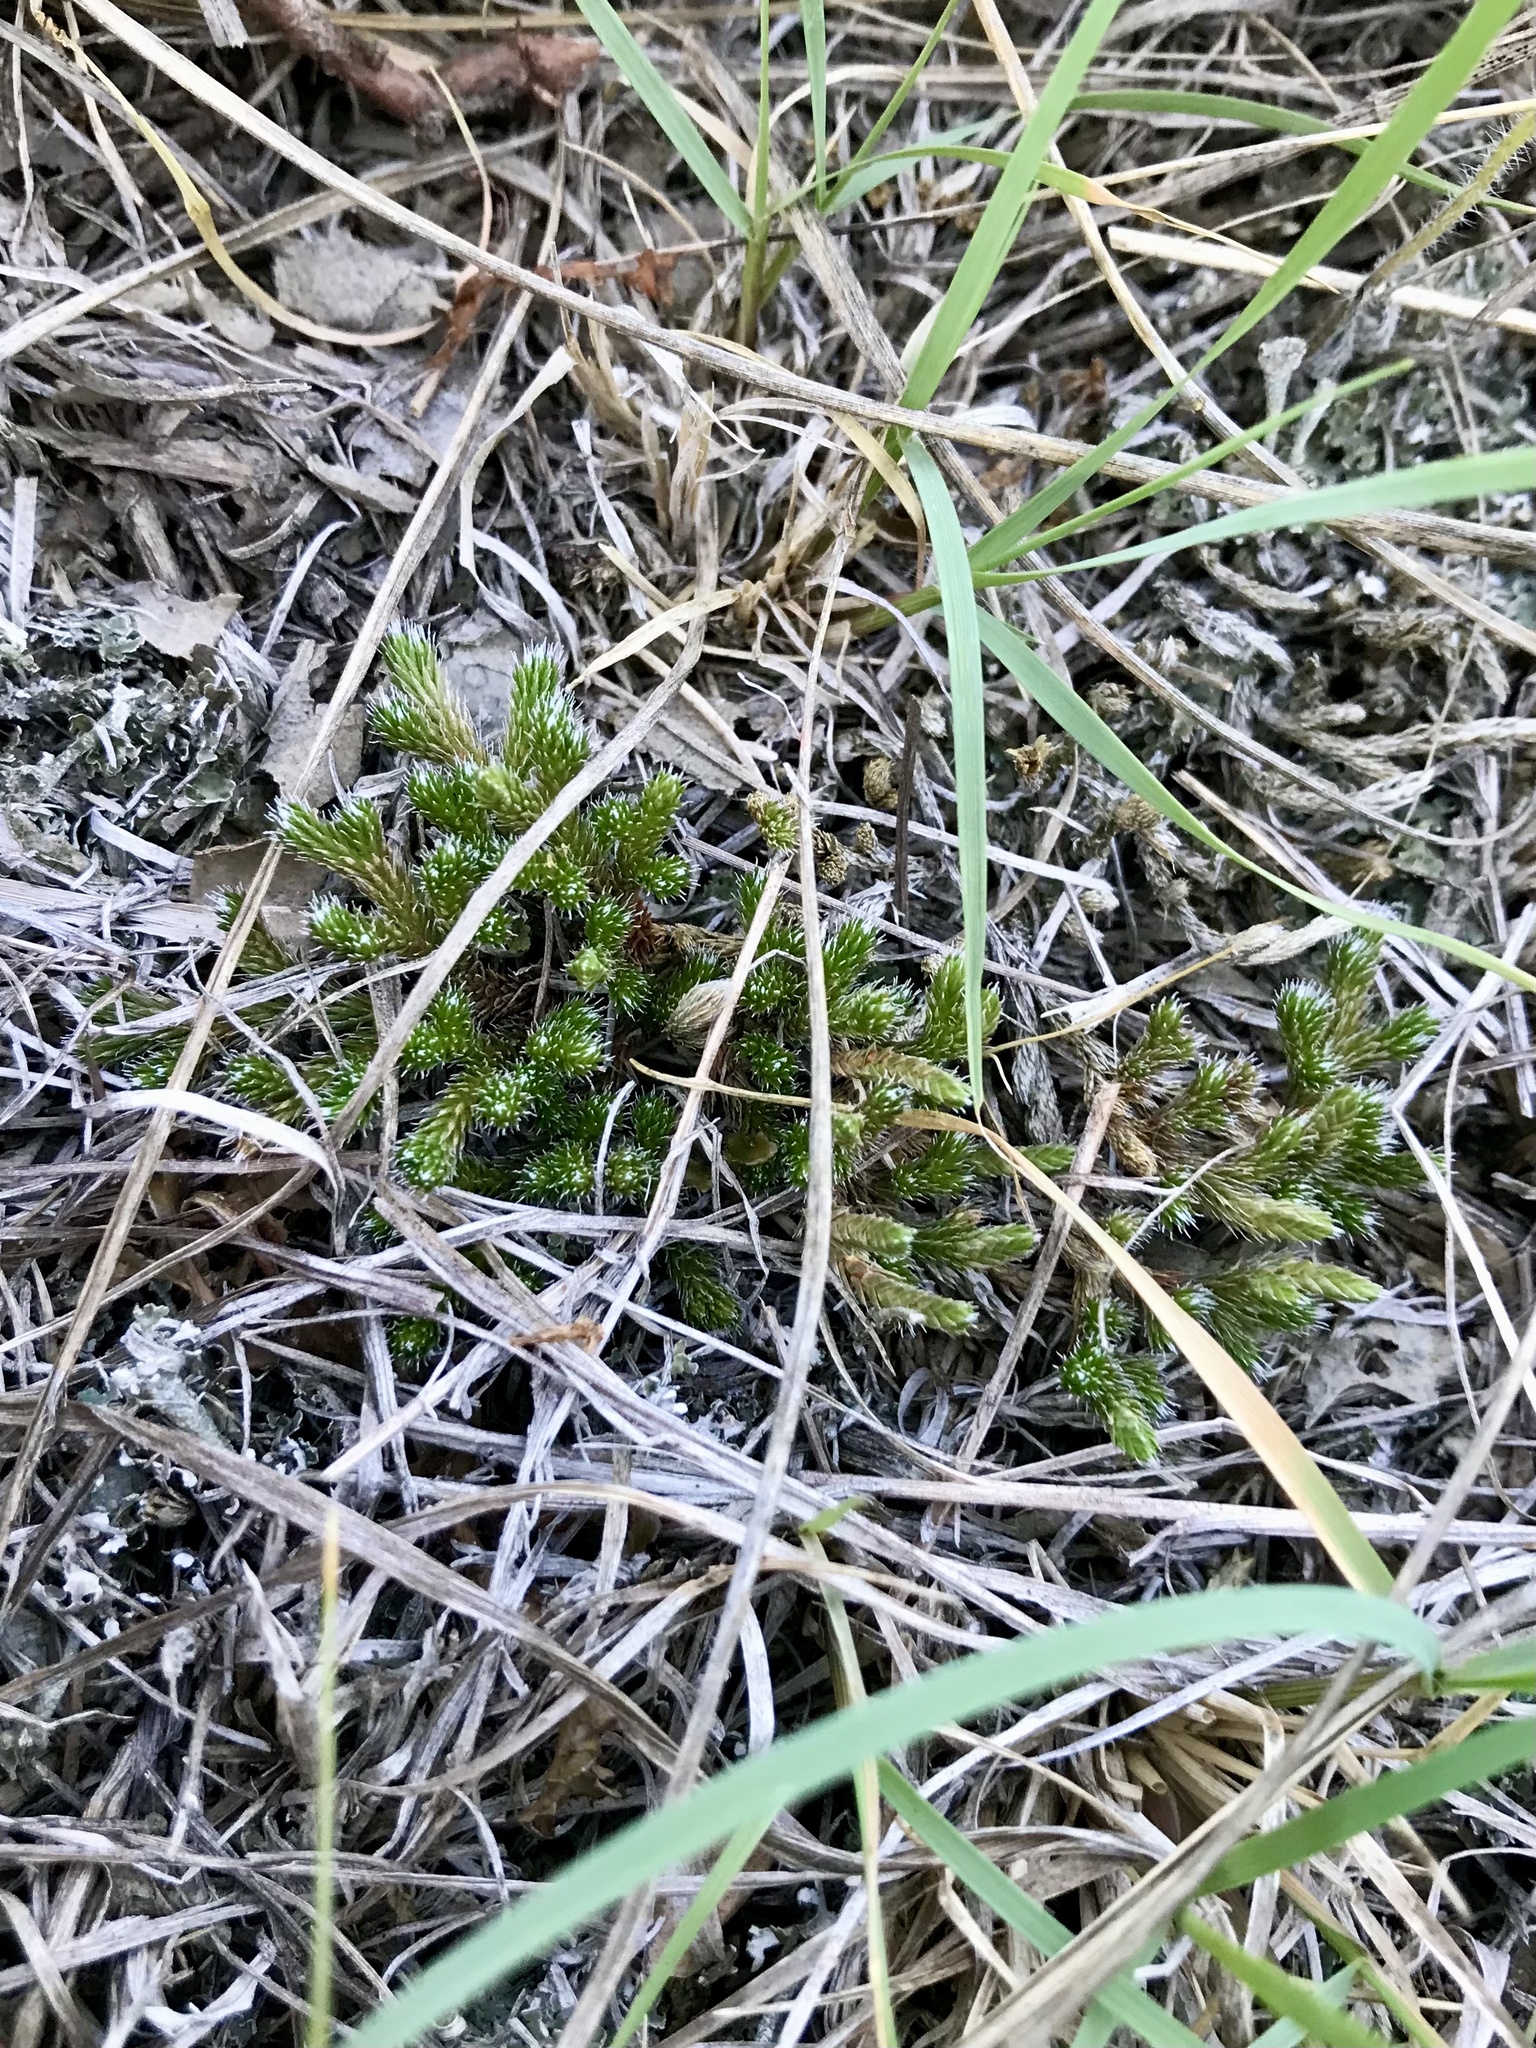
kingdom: Plantae
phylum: Tracheophyta
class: Lycopodiopsida
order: Selaginellales
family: Selaginellaceae
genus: Selaginella
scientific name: Selaginella rupestris
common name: Dwarf spikemoss
